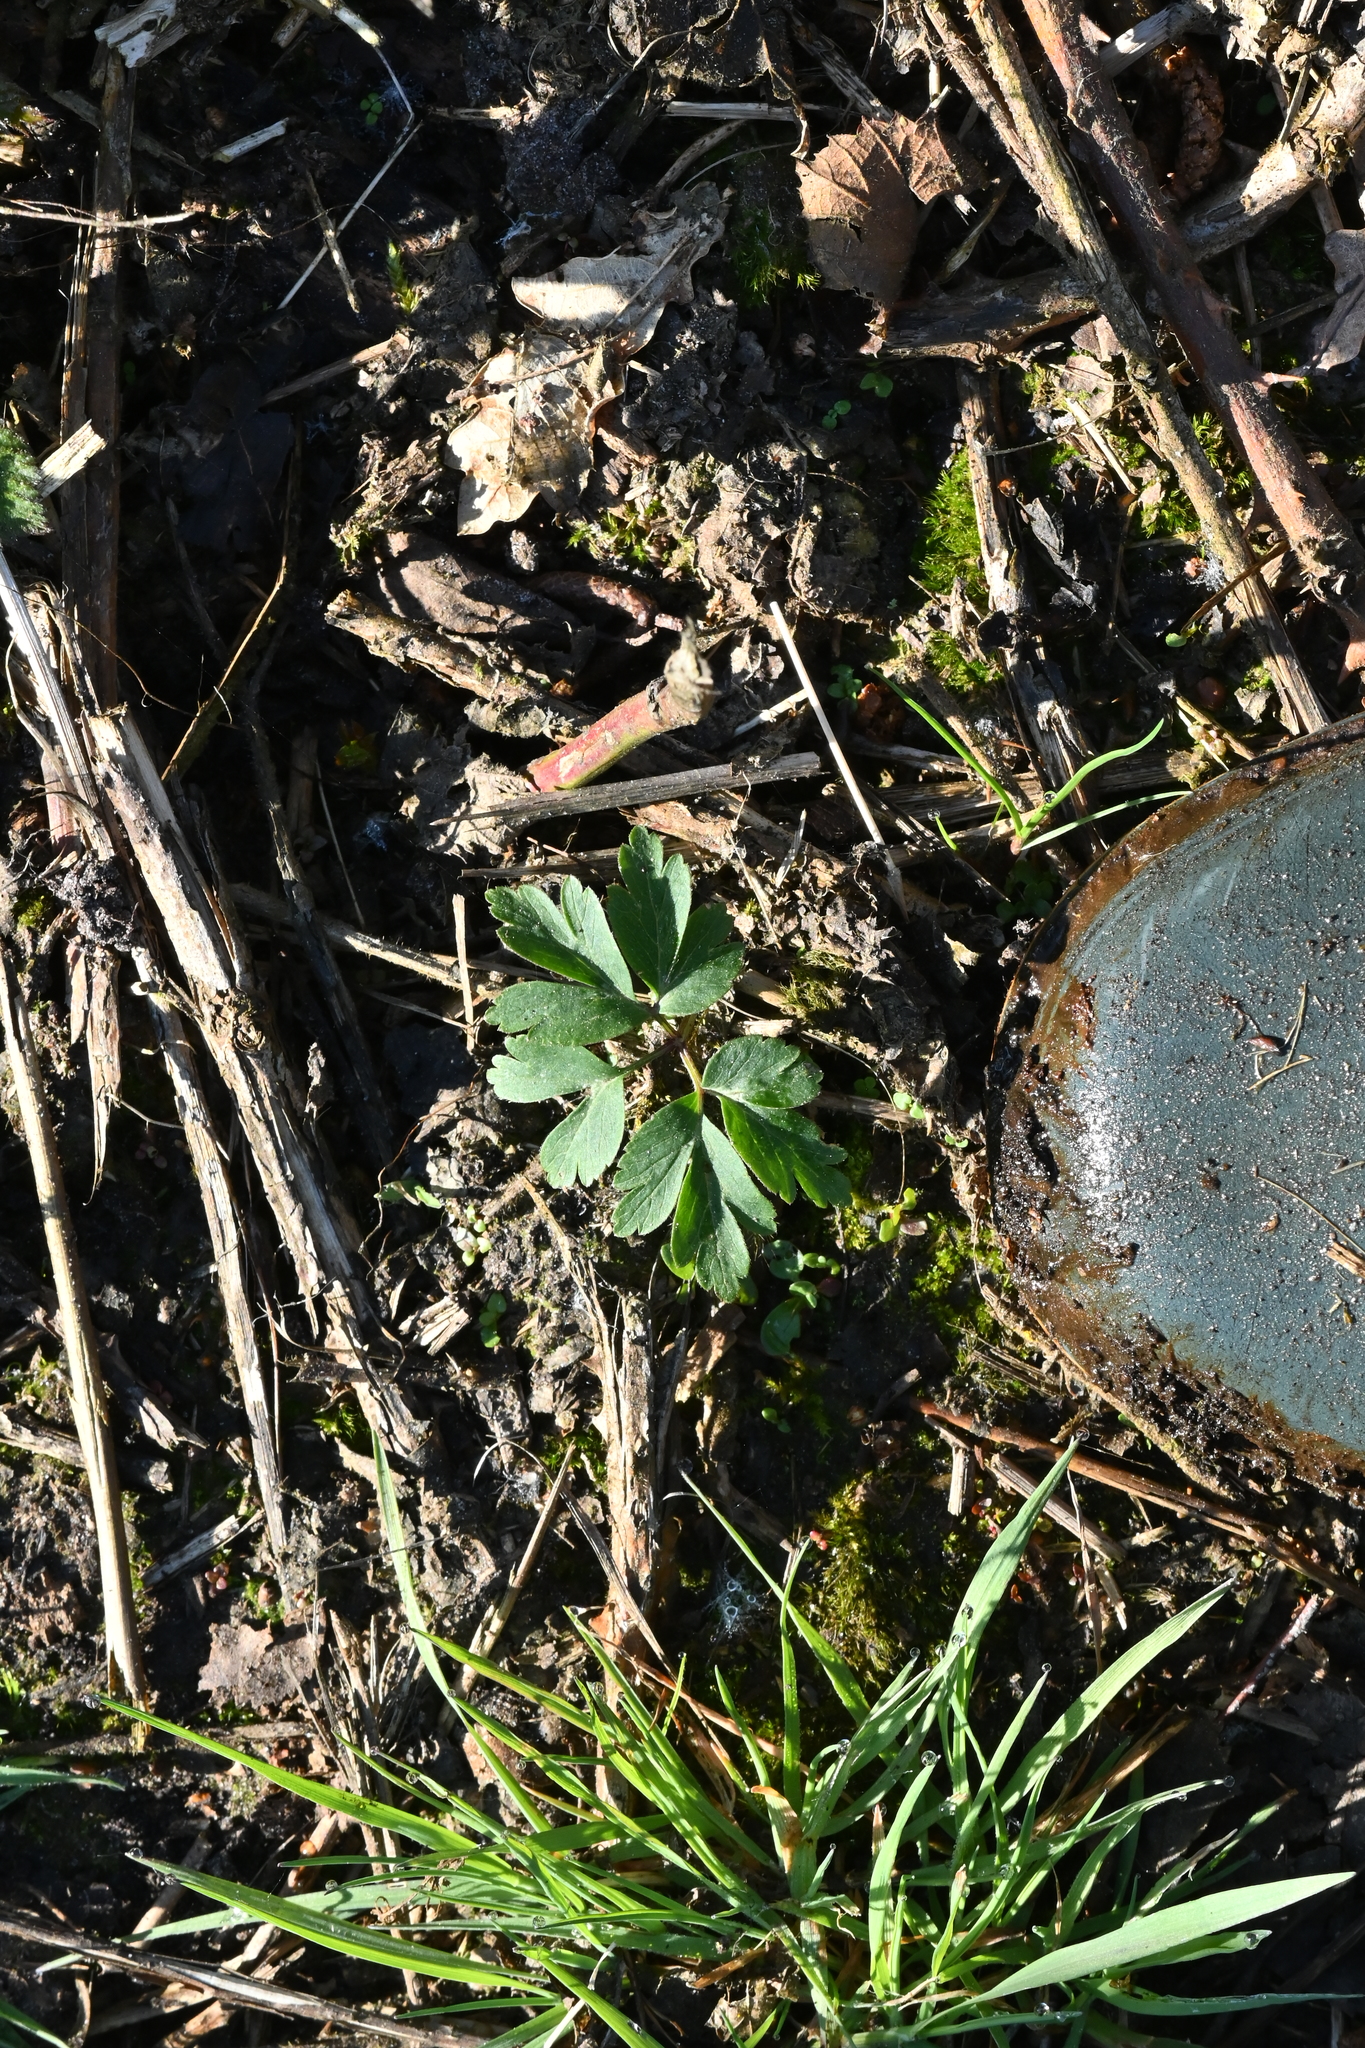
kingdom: Plantae
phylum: Tracheophyta
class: Magnoliopsida
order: Ranunculales
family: Ranunculaceae
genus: Anemone
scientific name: Anemone nemorosa
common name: Wood anemone
